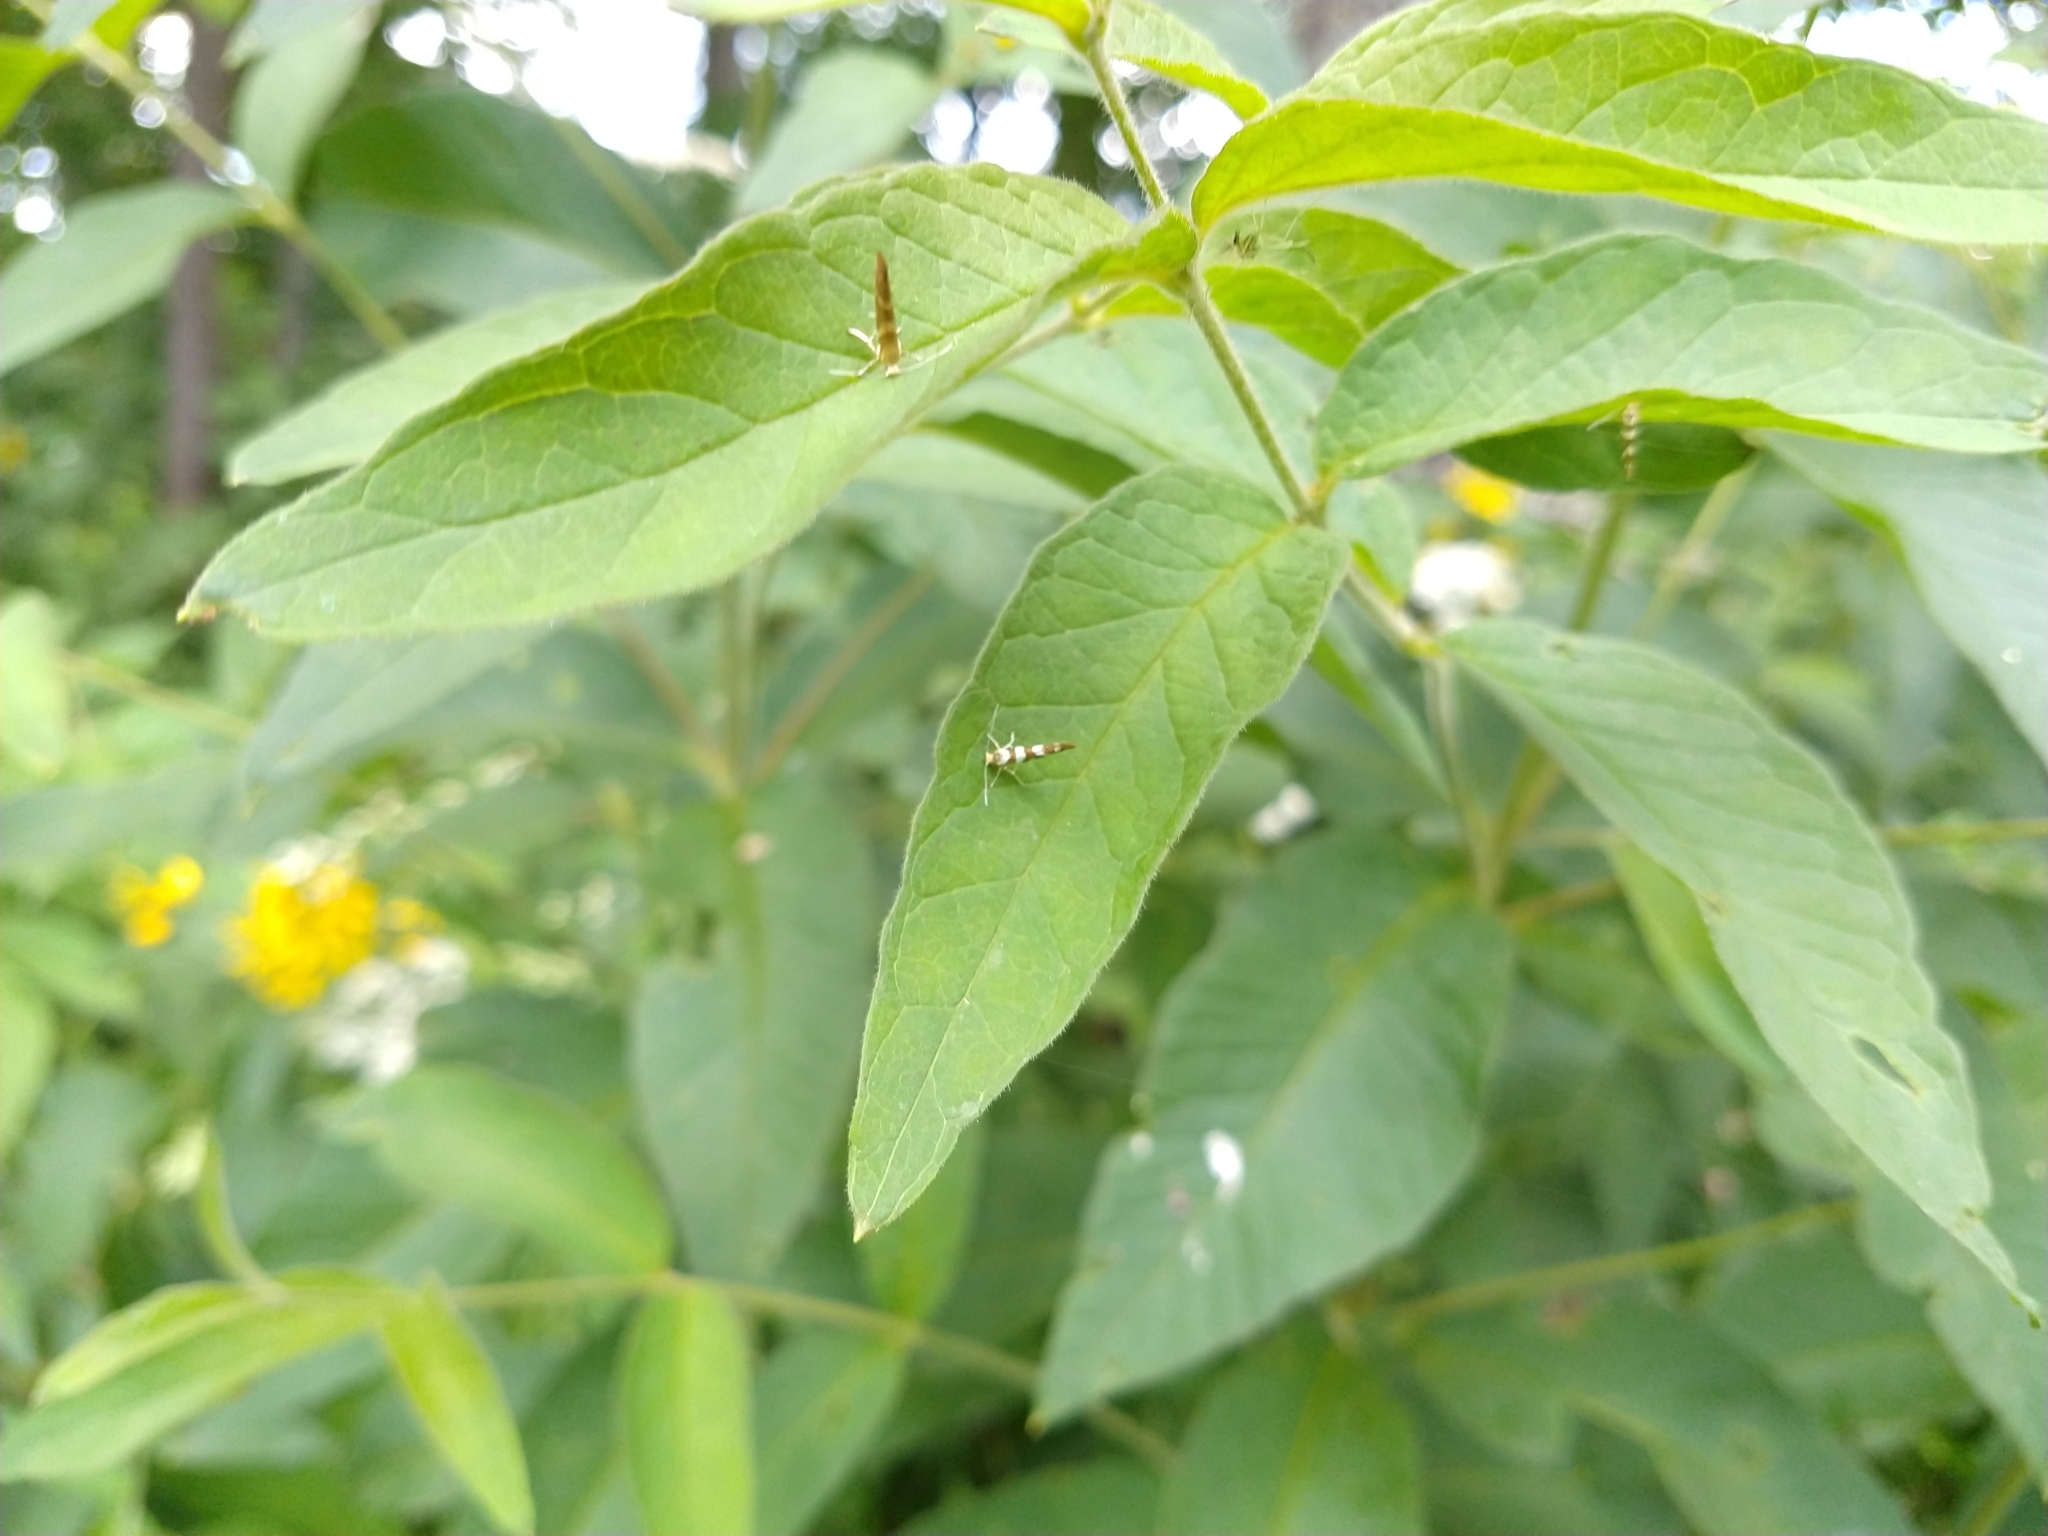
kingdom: Animalia
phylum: Arthropoda
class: Insecta
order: Lepidoptera
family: Argyresthiidae
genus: Argyresthia
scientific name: Argyresthia goedartella
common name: Golden argent
